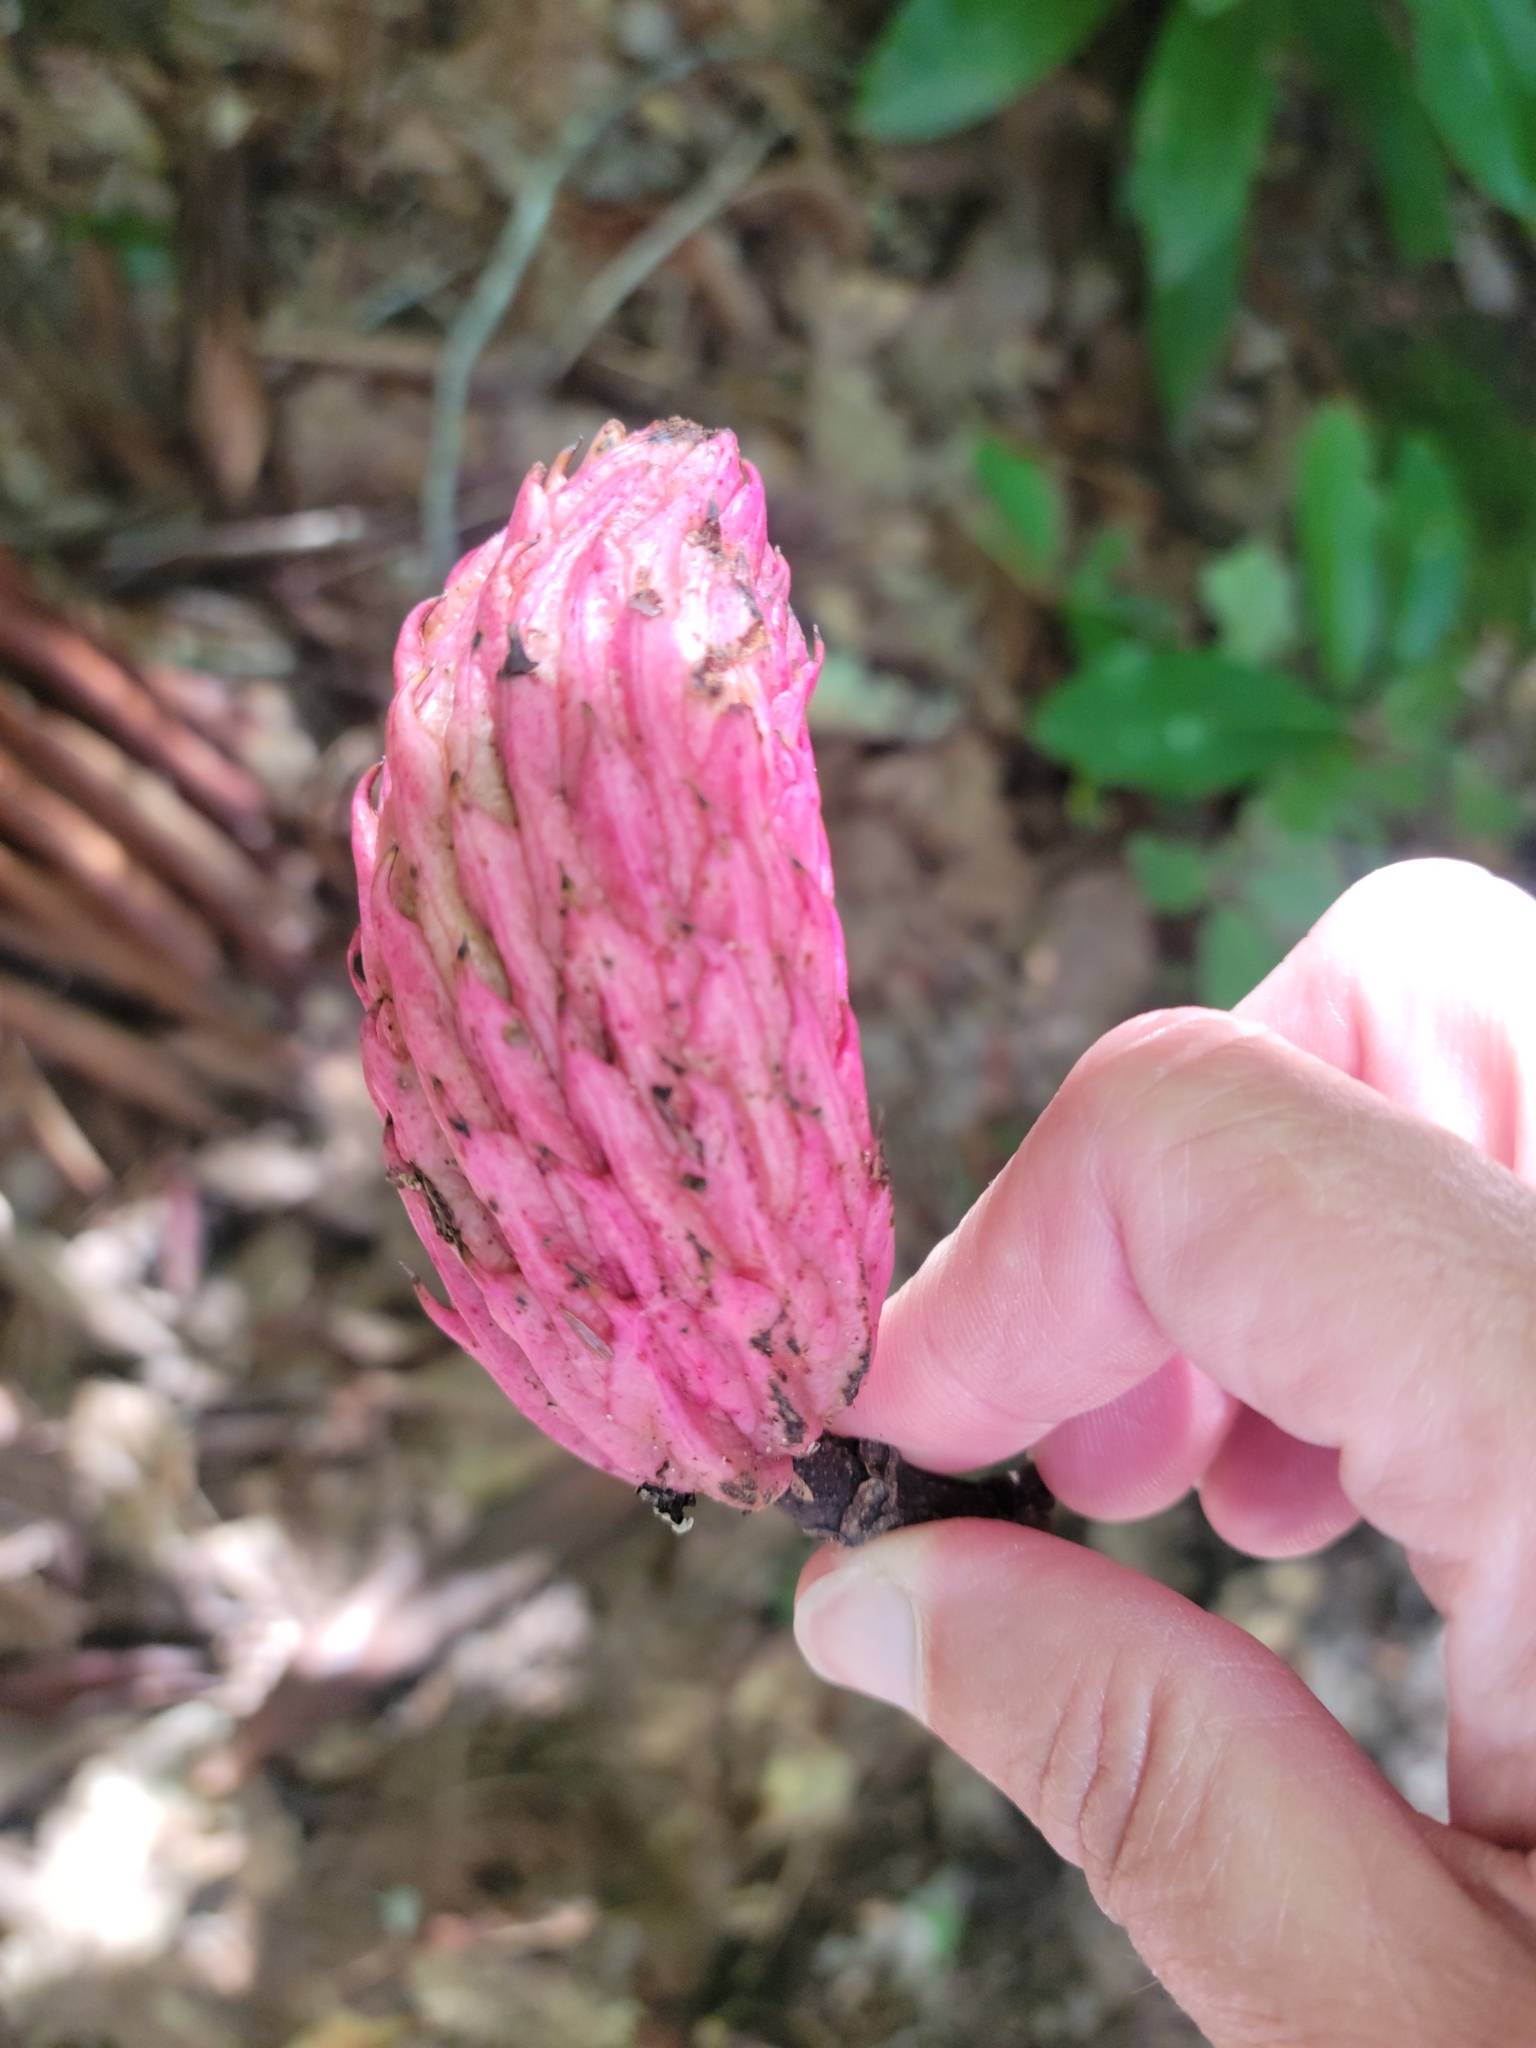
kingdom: Plantae
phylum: Tracheophyta
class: Magnoliopsida
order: Magnoliales
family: Magnoliaceae
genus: Magnolia
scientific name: Magnolia fraseri
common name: Fraser's magnolia
